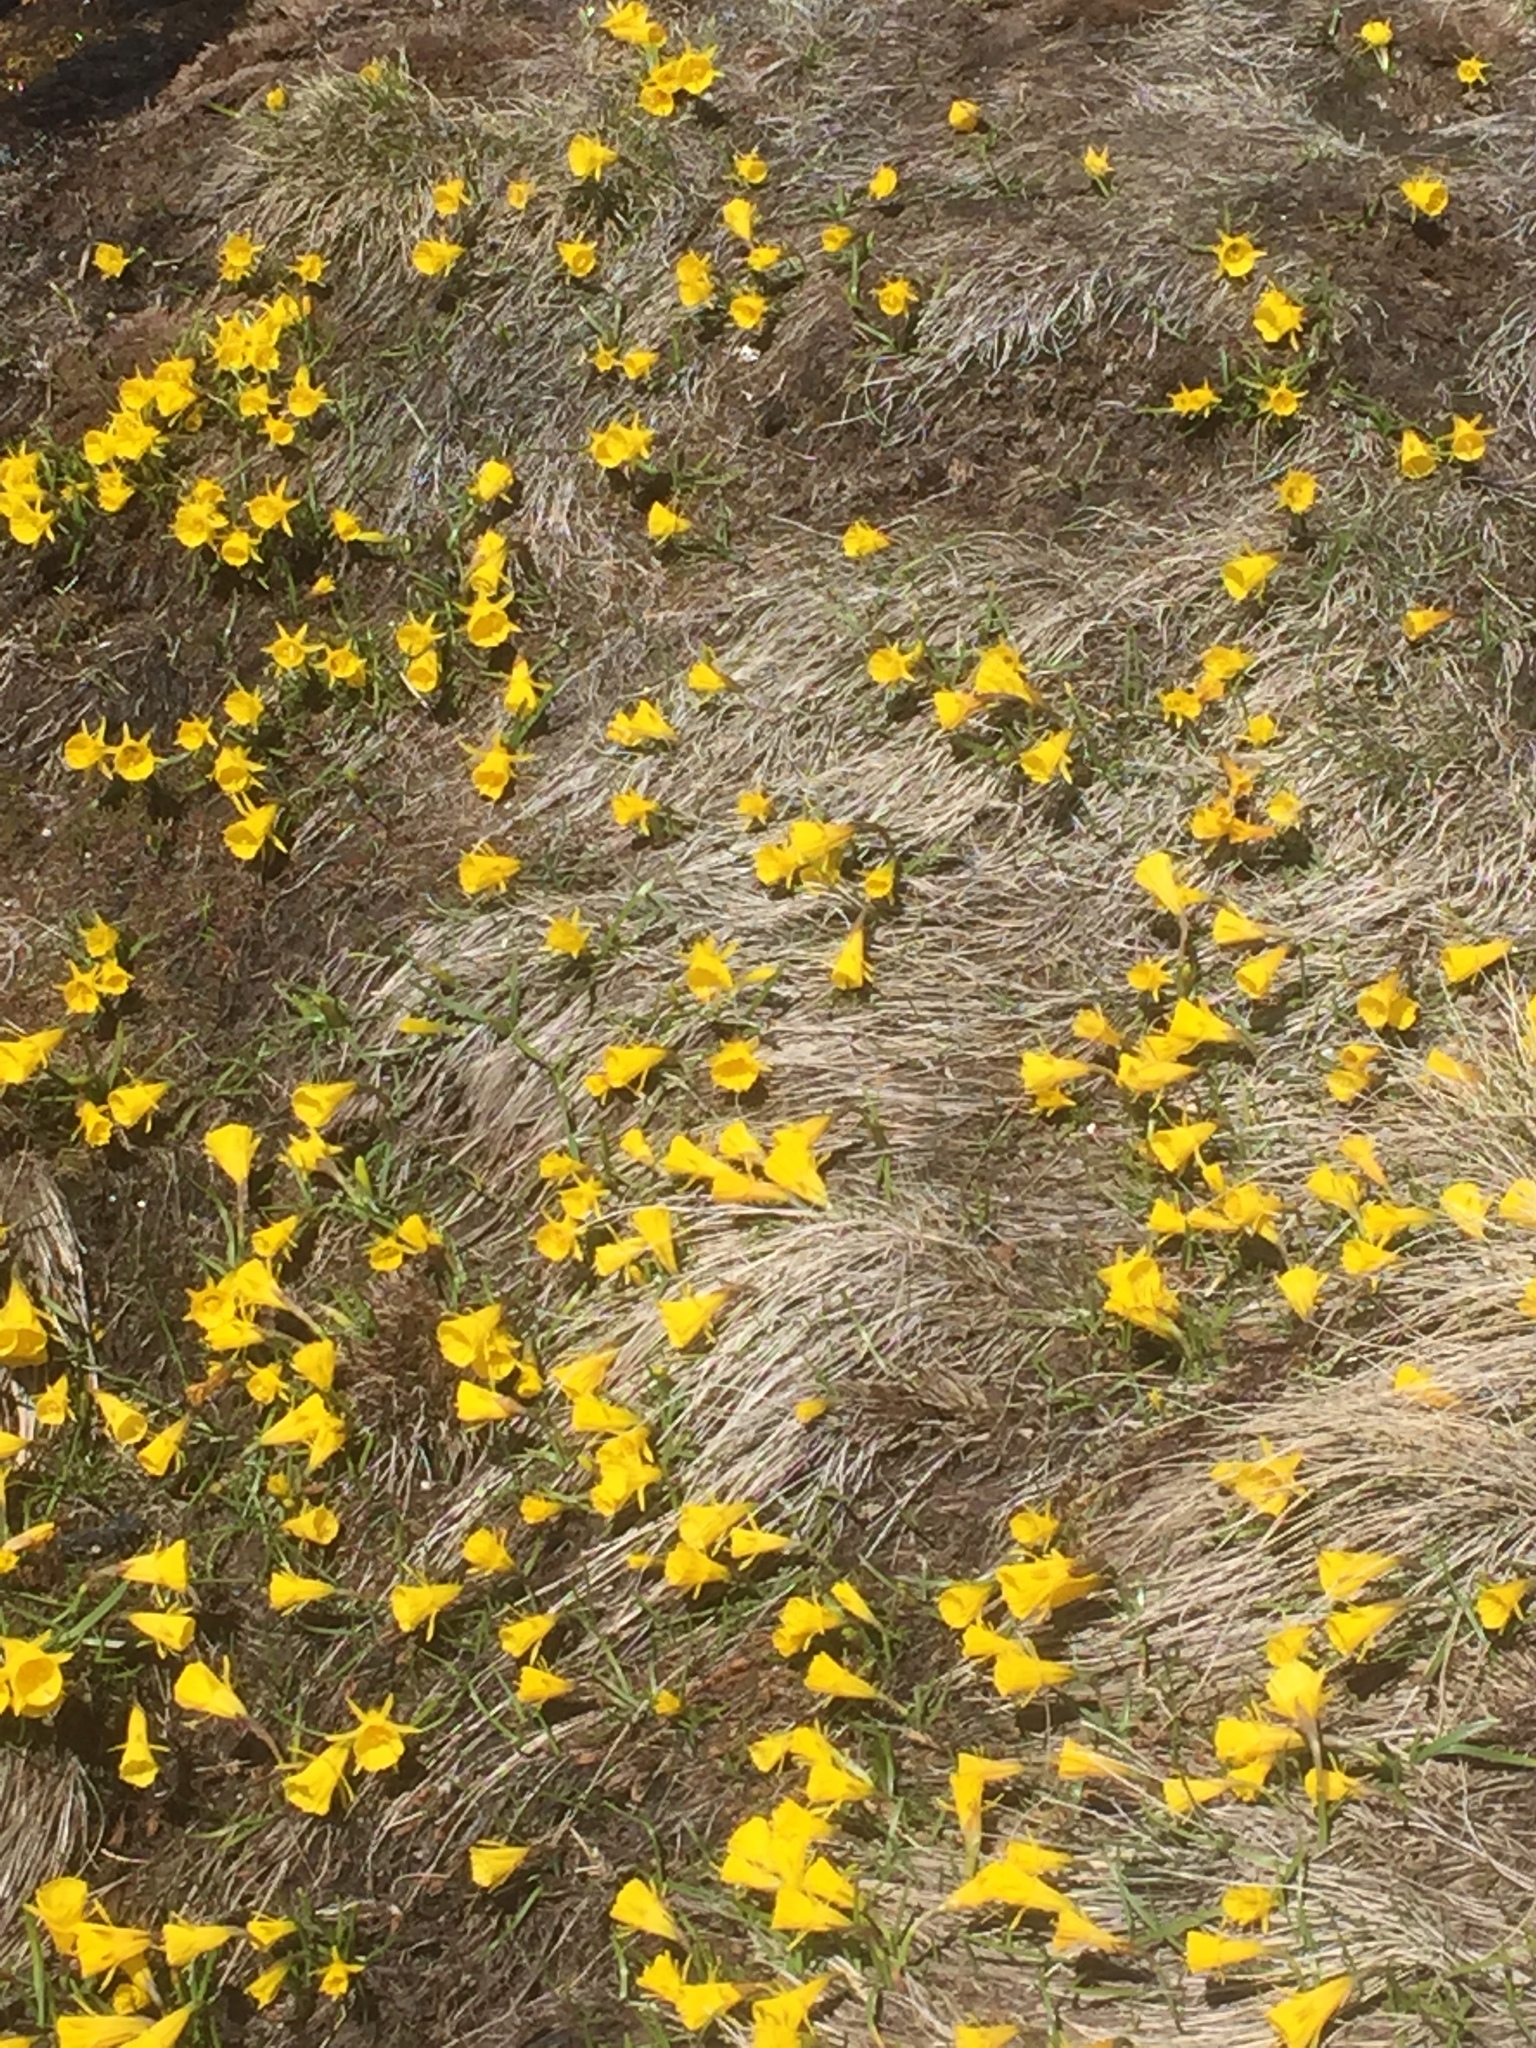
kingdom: Plantae
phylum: Tracheophyta
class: Liliopsida
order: Asparagales
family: Amaryllidaceae
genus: Narcissus
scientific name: Narcissus bulbocodium
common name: Hoop-petticoat daffodil
